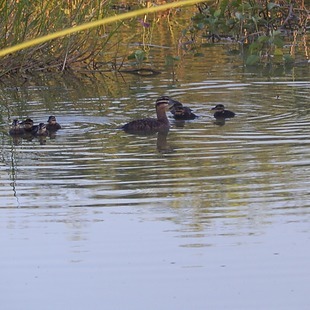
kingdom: Animalia
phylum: Chordata
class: Aves
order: Anseriformes
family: Anatidae
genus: Nomonyx
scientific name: Nomonyx dominicus
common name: Masked duck
